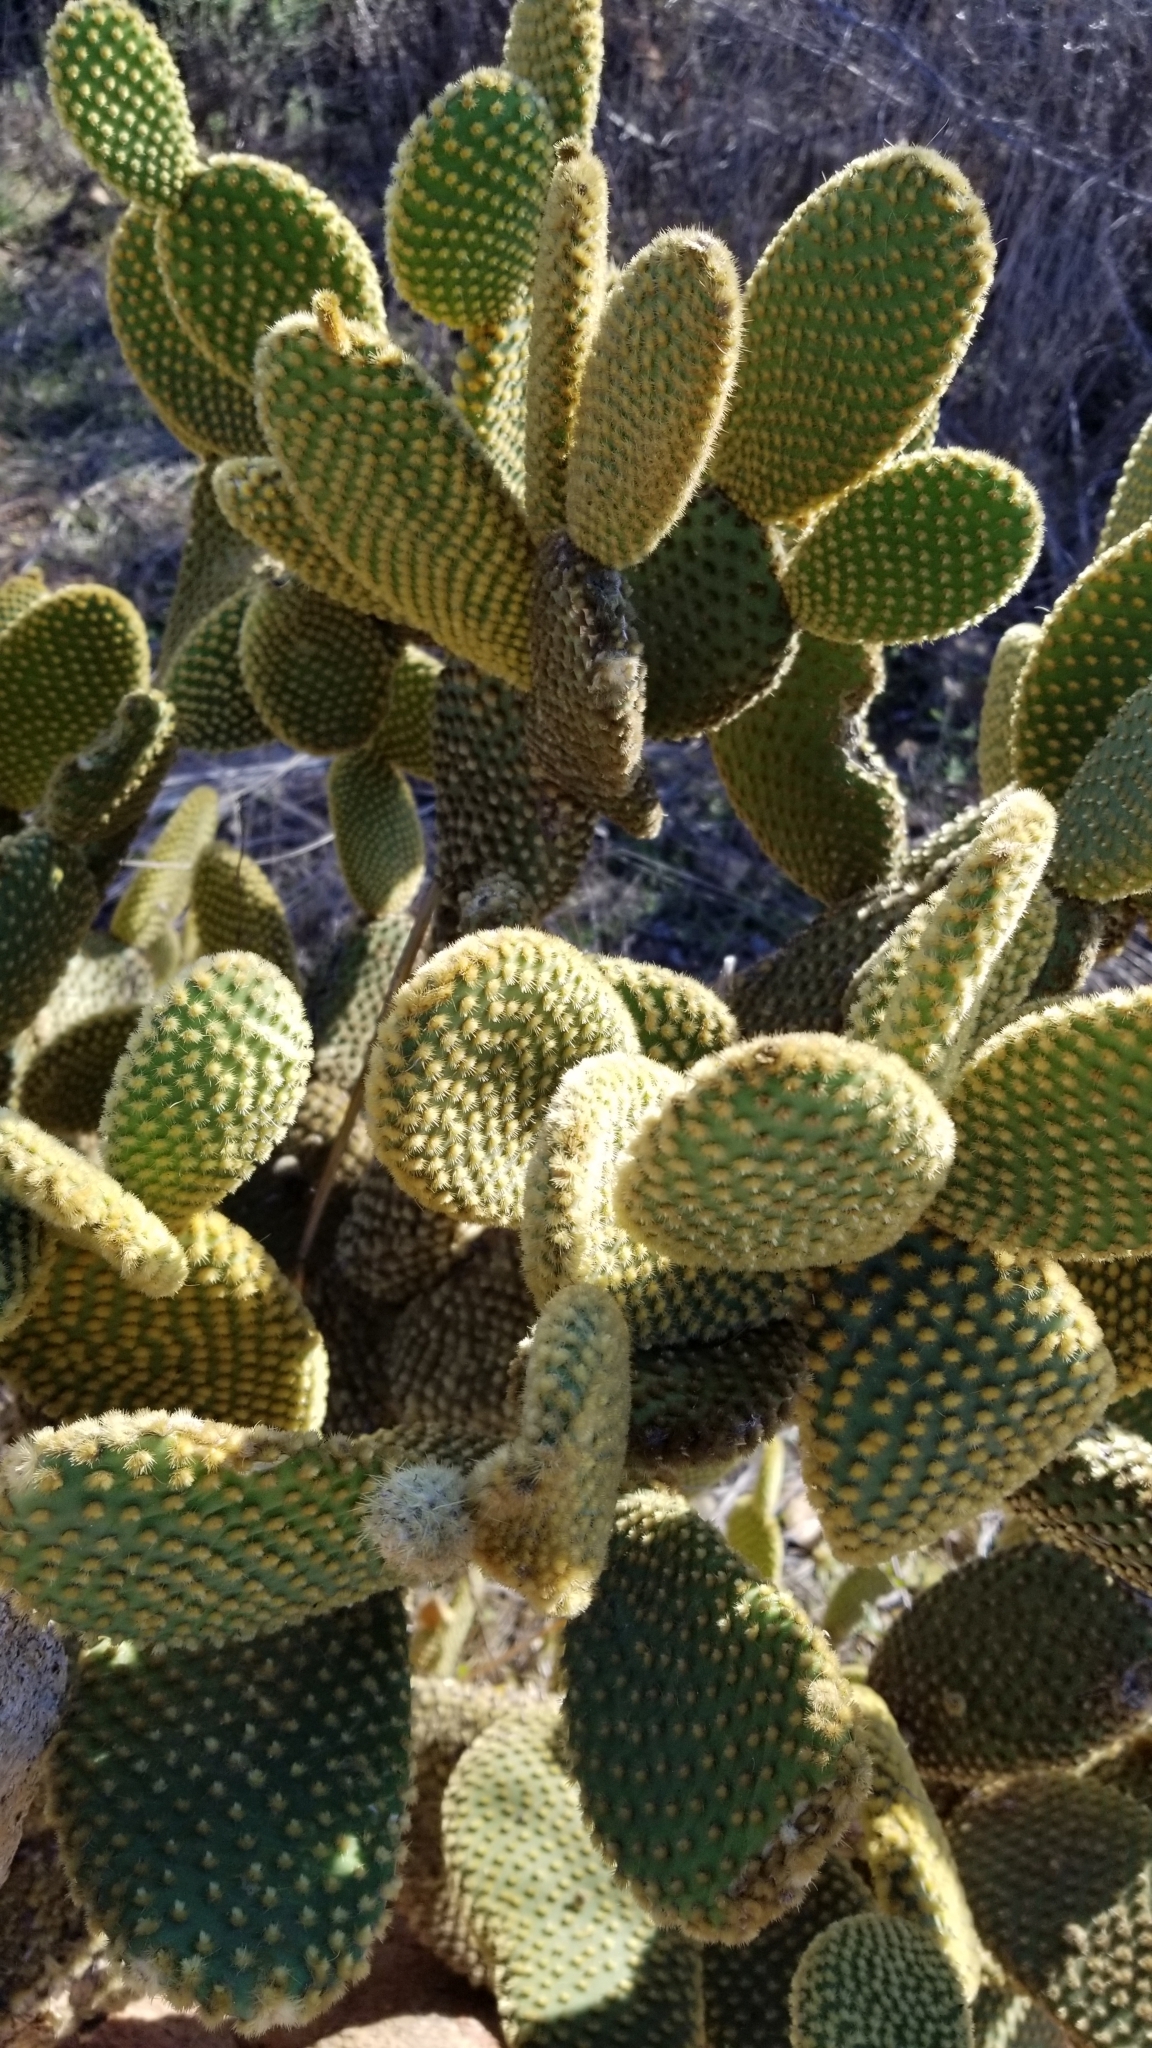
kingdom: Plantae
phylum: Tracheophyta
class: Magnoliopsida
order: Caryophyllales
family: Cactaceae
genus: Opuntia
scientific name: Opuntia microdasys
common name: Angel's-wings
